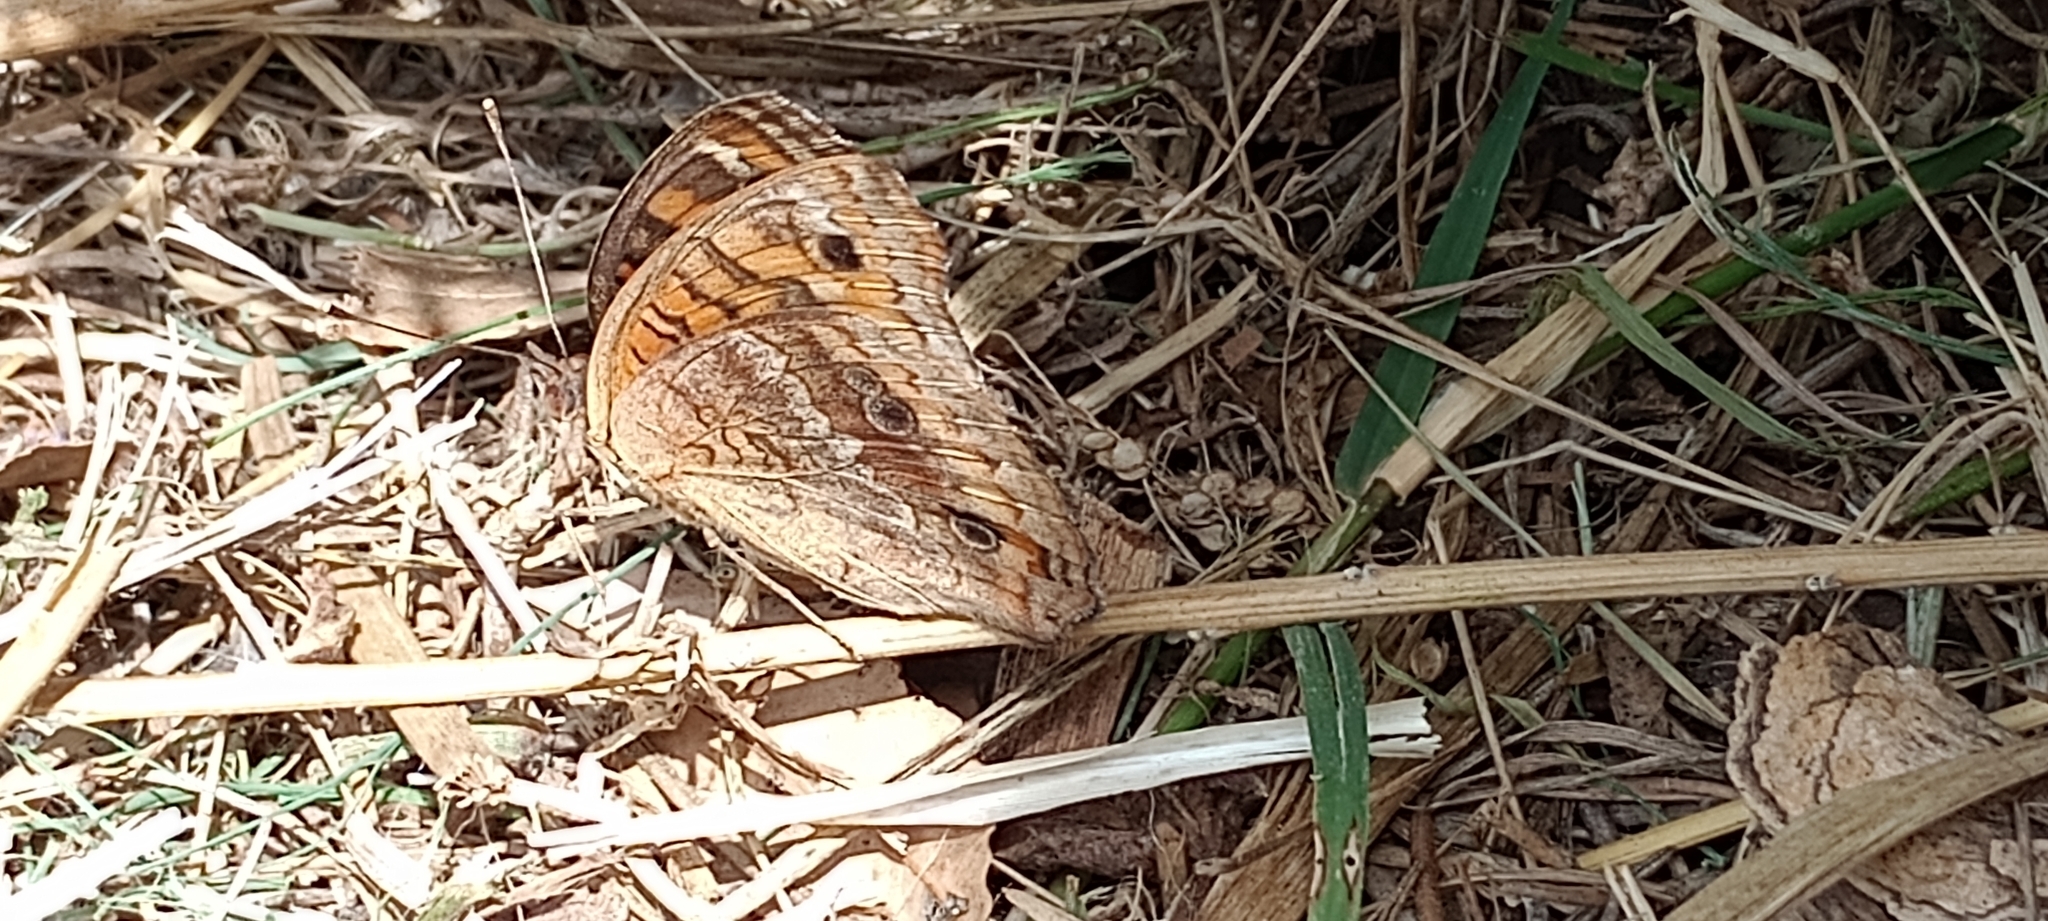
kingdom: Animalia
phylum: Arthropoda
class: Insecta
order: Lepidoptera
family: Nymphalidae
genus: Junonia
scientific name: Junonia lavinia
